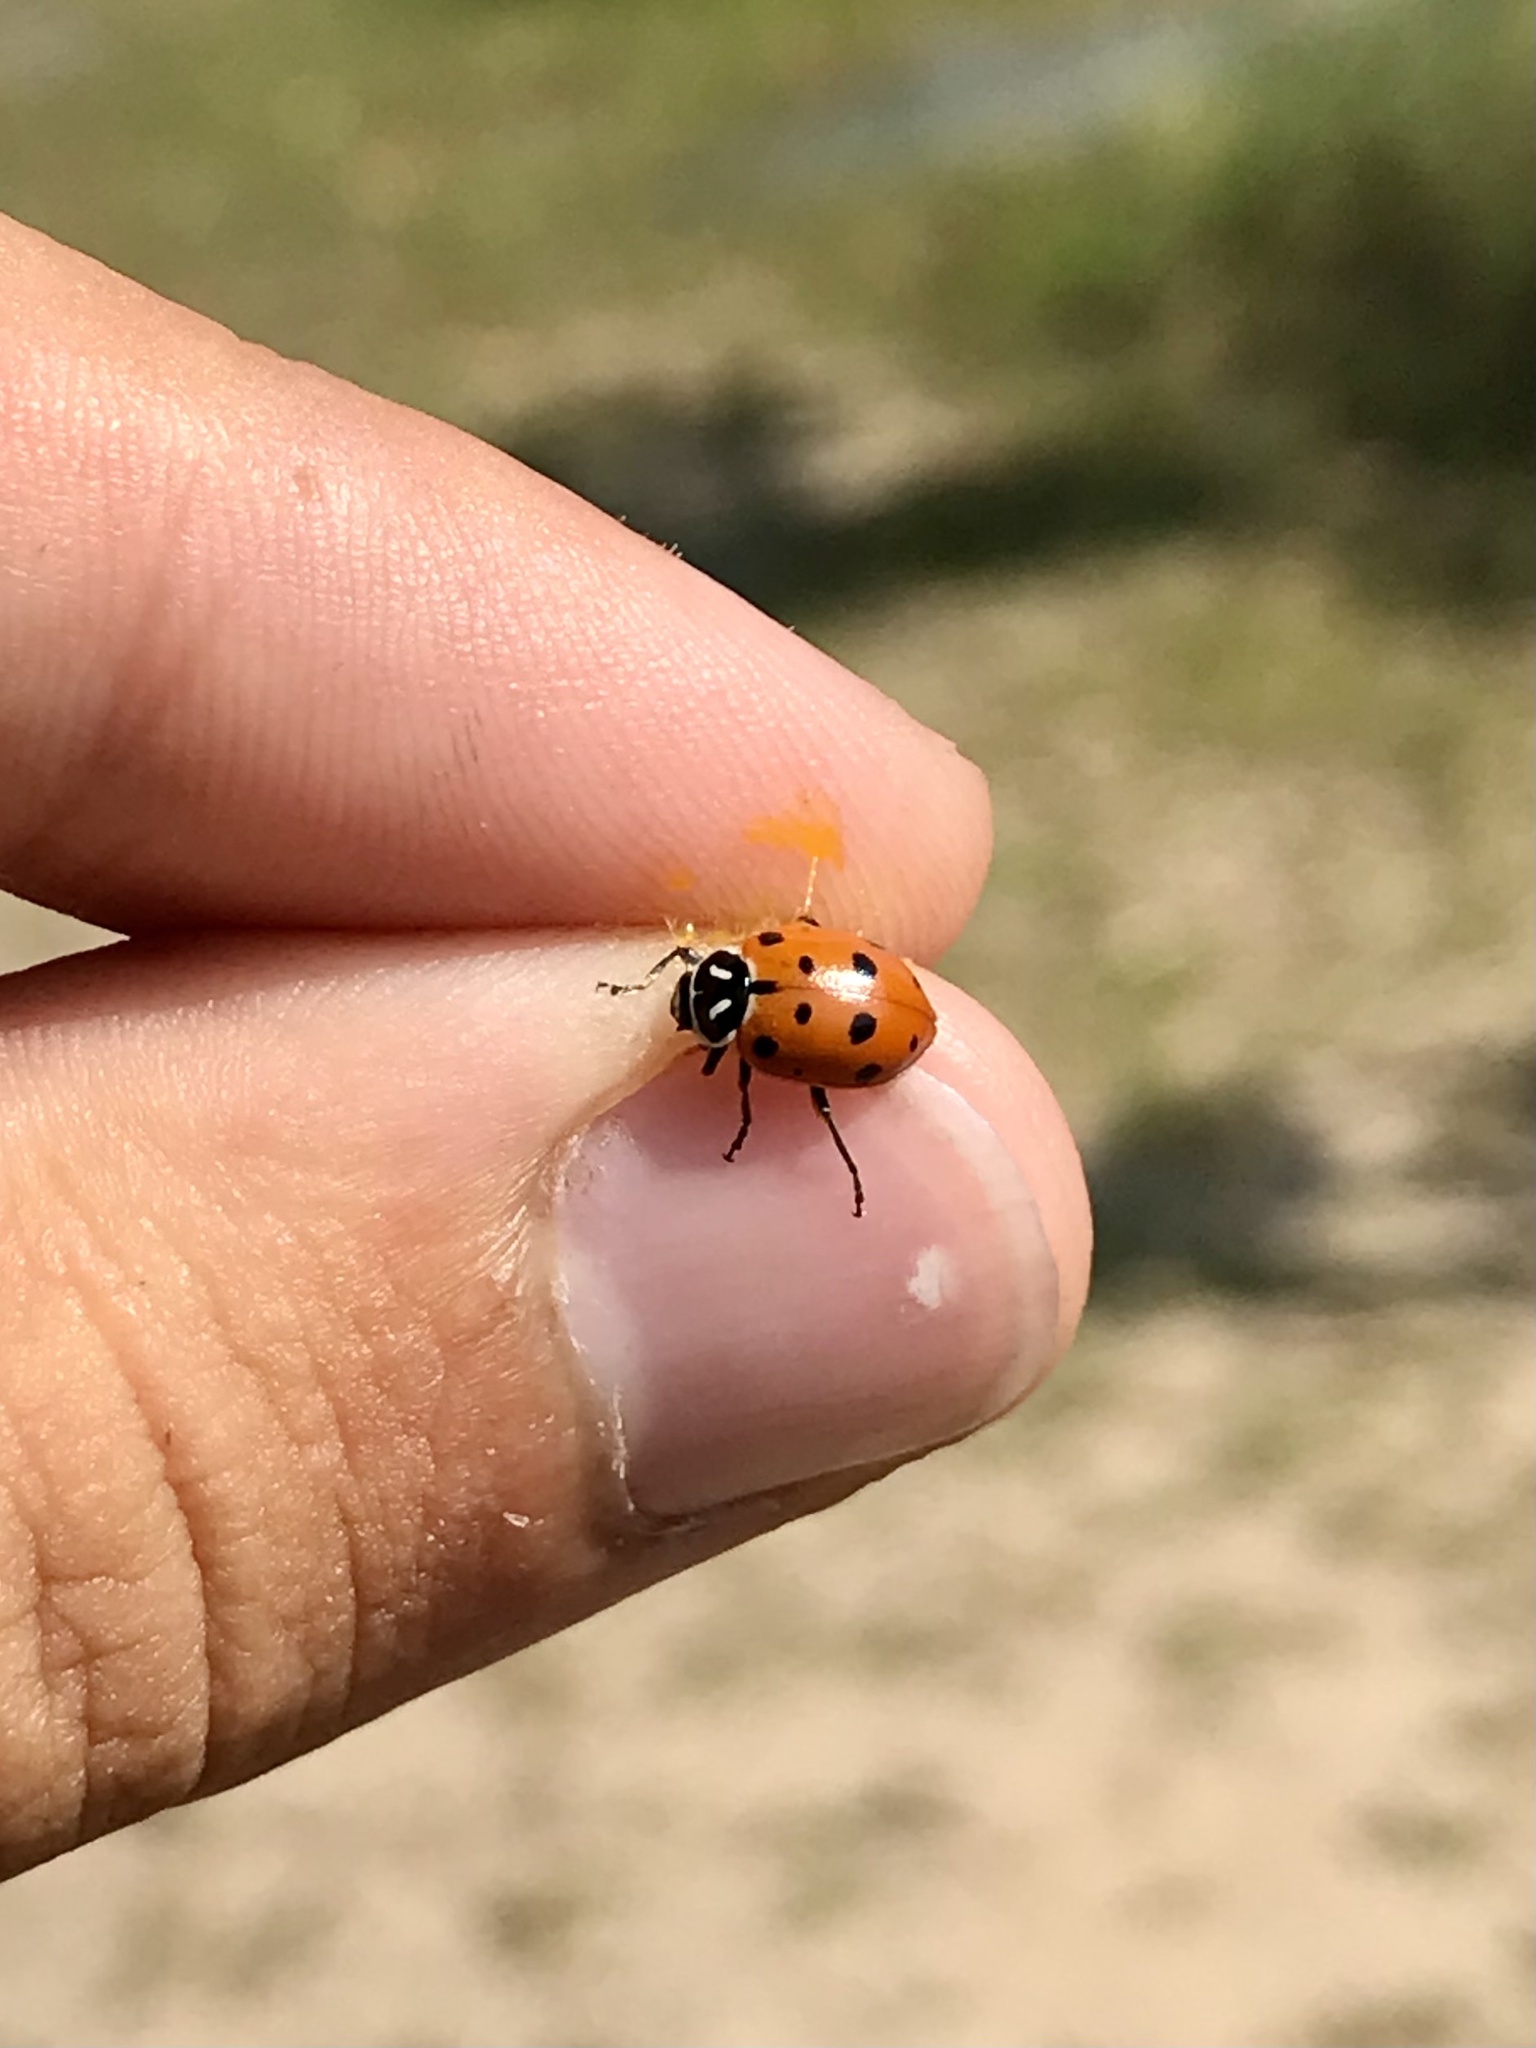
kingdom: Animalia
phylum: Arthropoda
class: Insecta
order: Coleoptera
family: Coccinellidae
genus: Hippodamia
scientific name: Hippodamia convergens
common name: Convergent lady beetle
